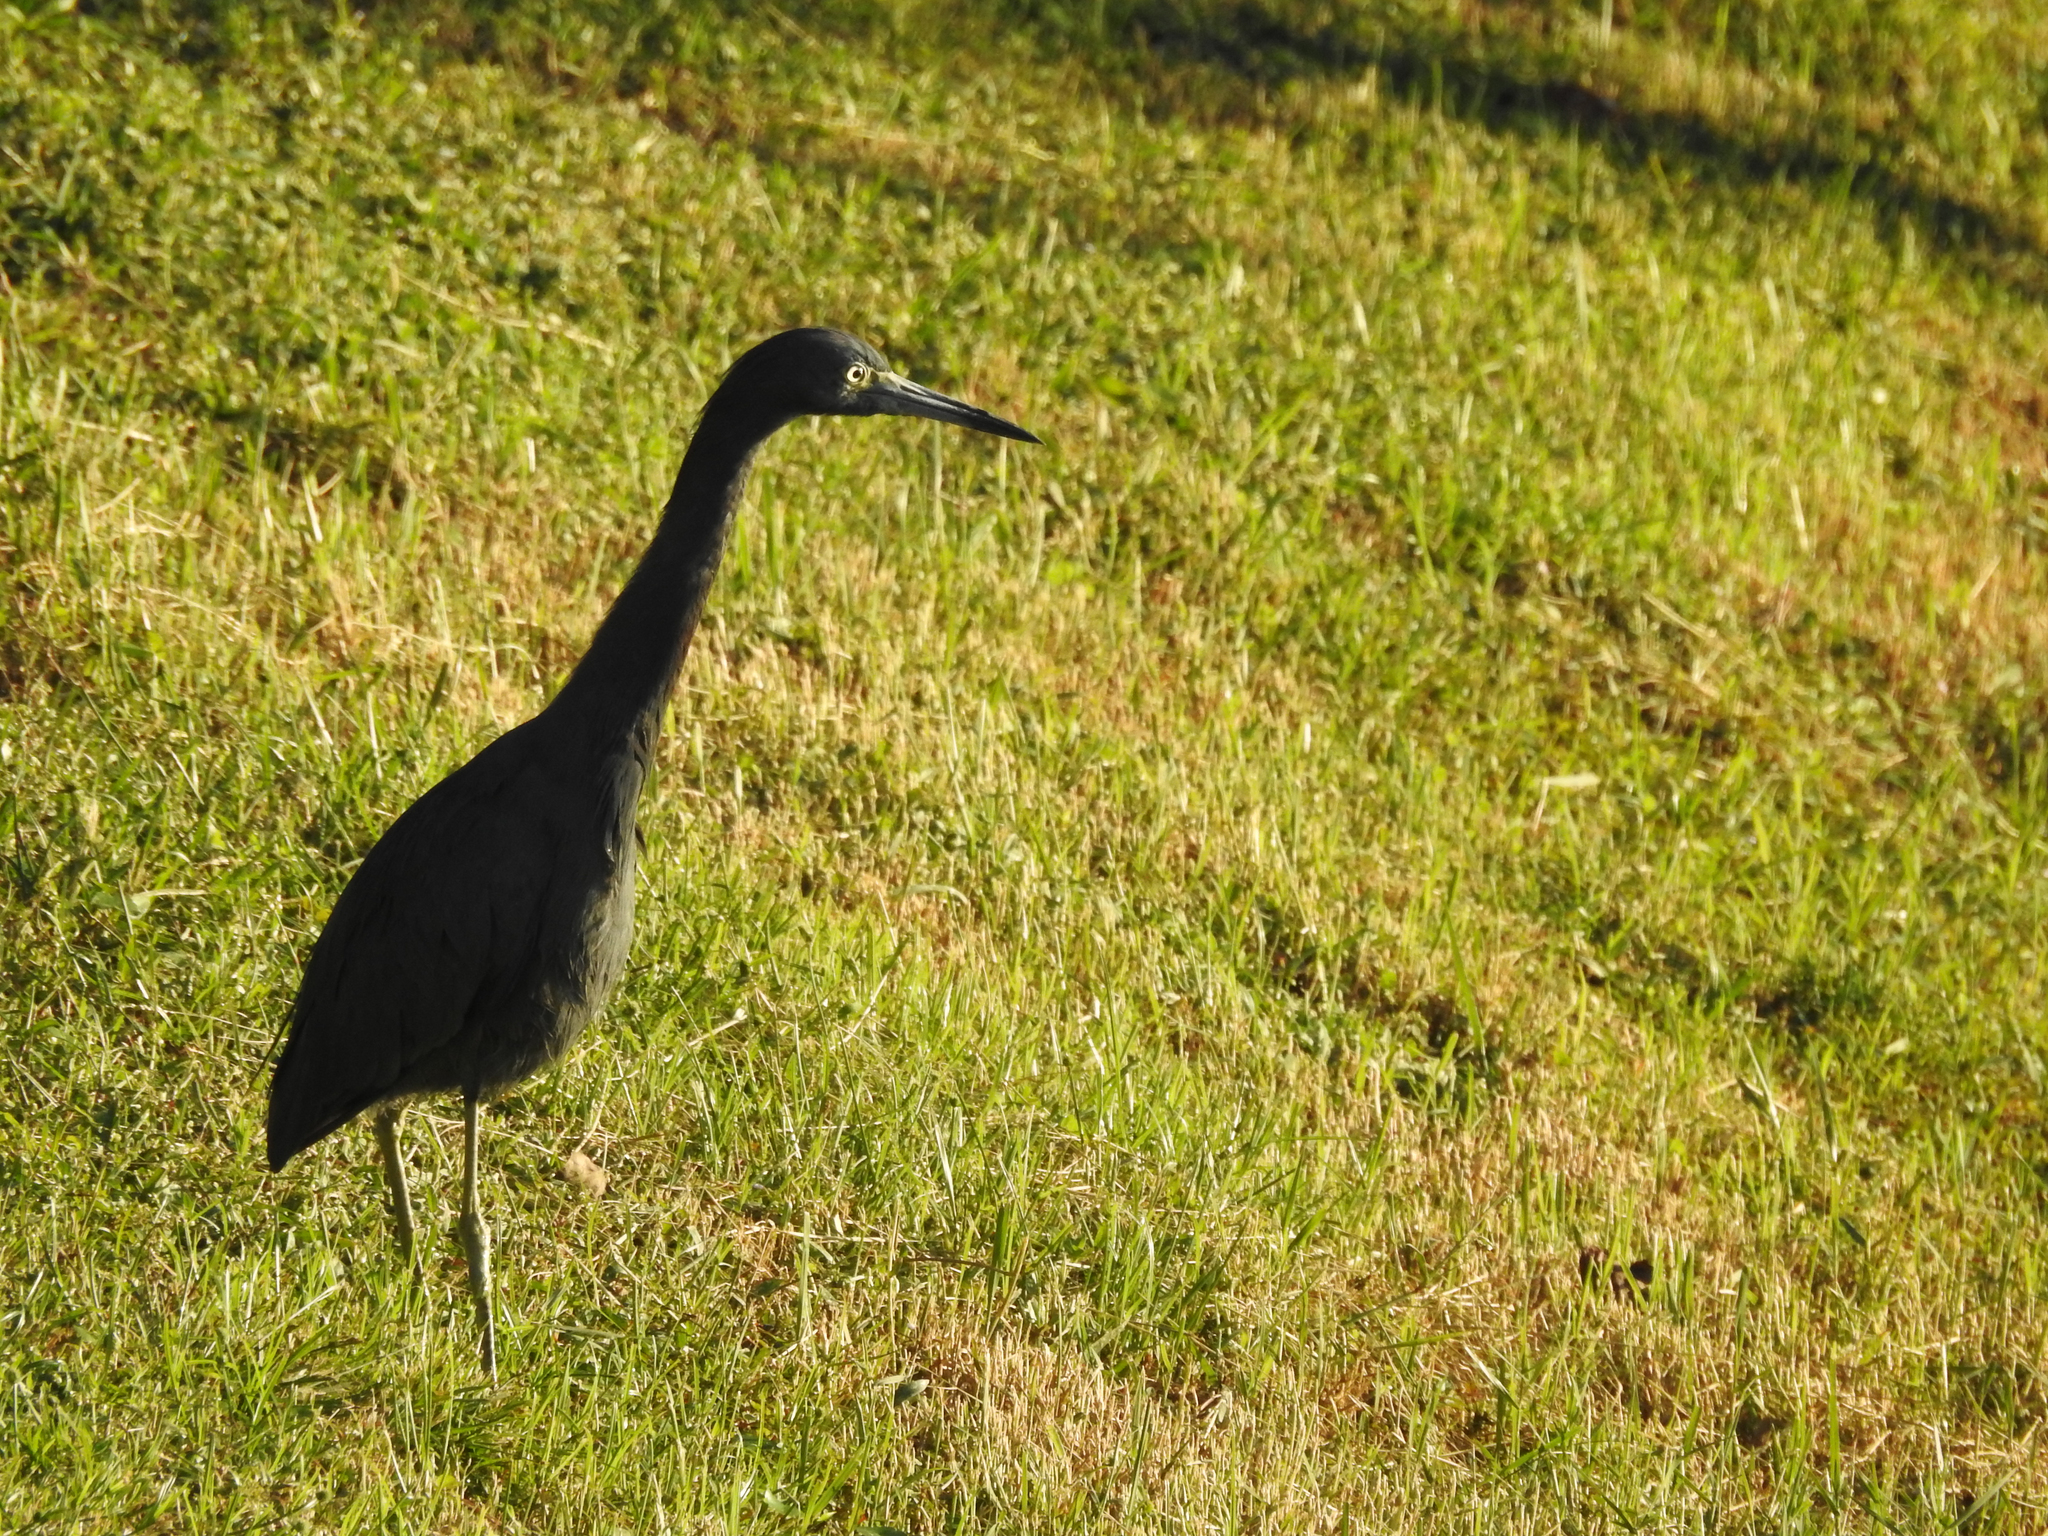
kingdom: Animalia
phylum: Chordata
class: Aves
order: Pelecaniformes
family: Ardeidae
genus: Egretta
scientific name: Egretta caerulea
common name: Little blue heron
